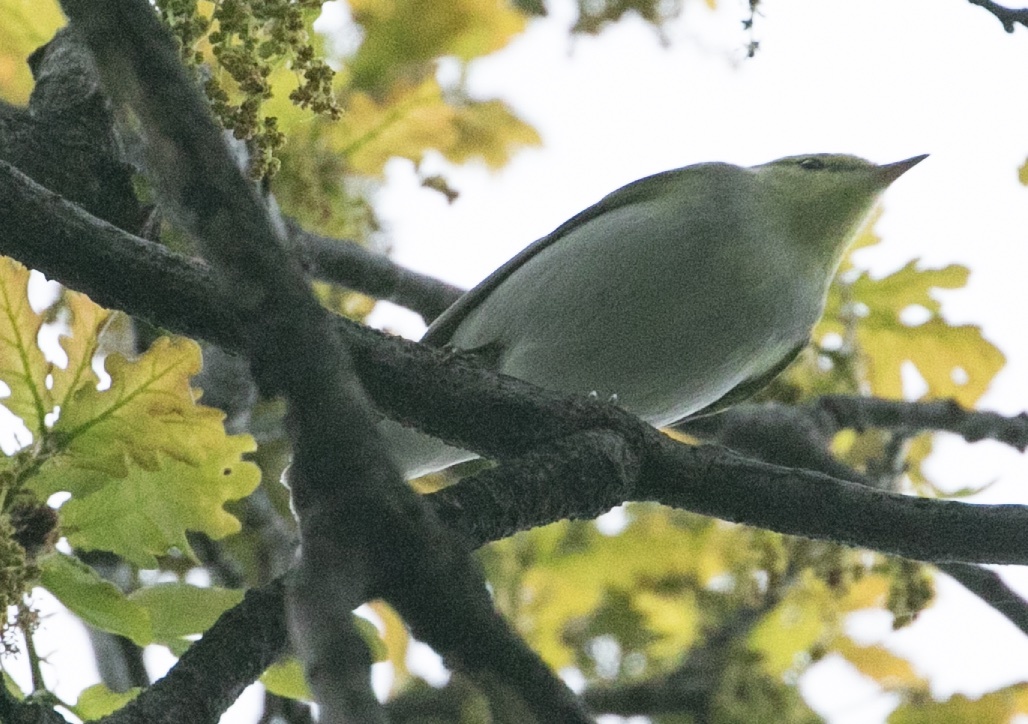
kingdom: Animalia
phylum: Chordata
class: Aves
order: Passeriformes
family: Phylloscopidae
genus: Phylloscopus
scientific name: Phylloscopus sibillatrix
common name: Wood warbler
